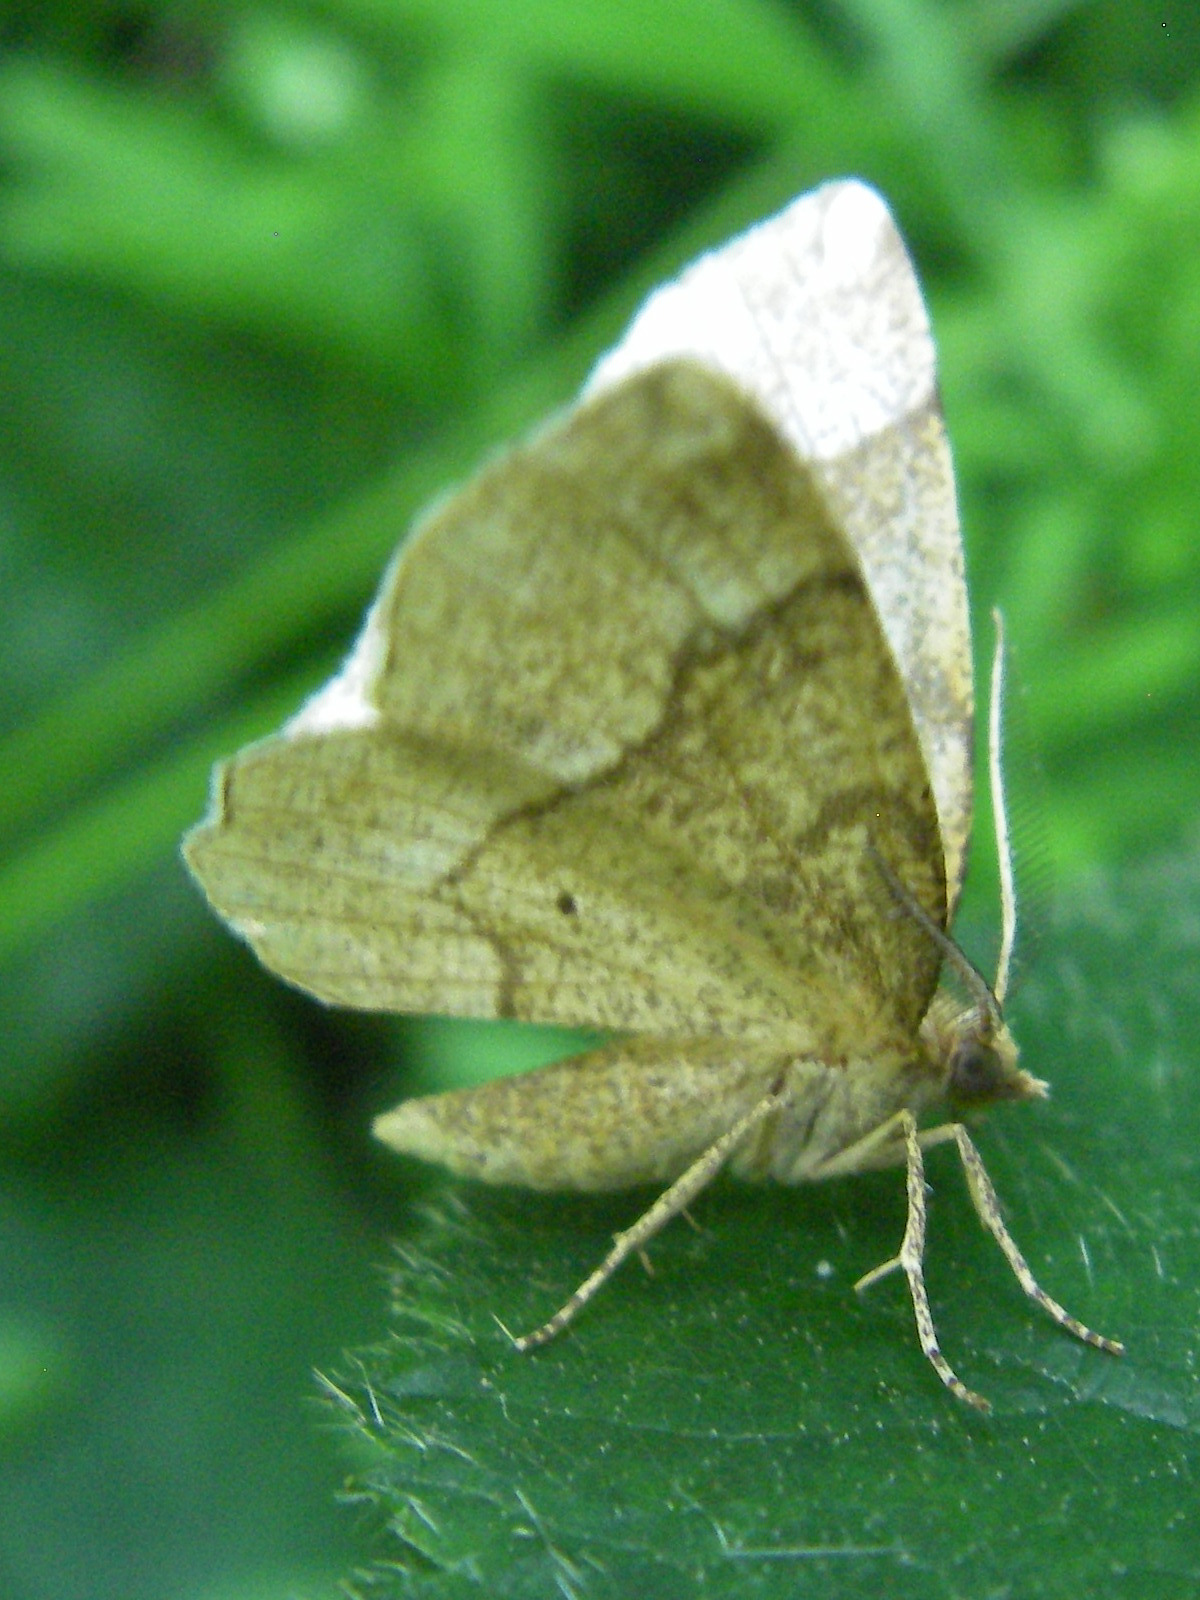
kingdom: Animalia
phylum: Arthropoda
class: Insecta
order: Lepidoptera
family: Geometridae
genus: Cepphis
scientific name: Cepphis advenaria
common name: Little thorn
